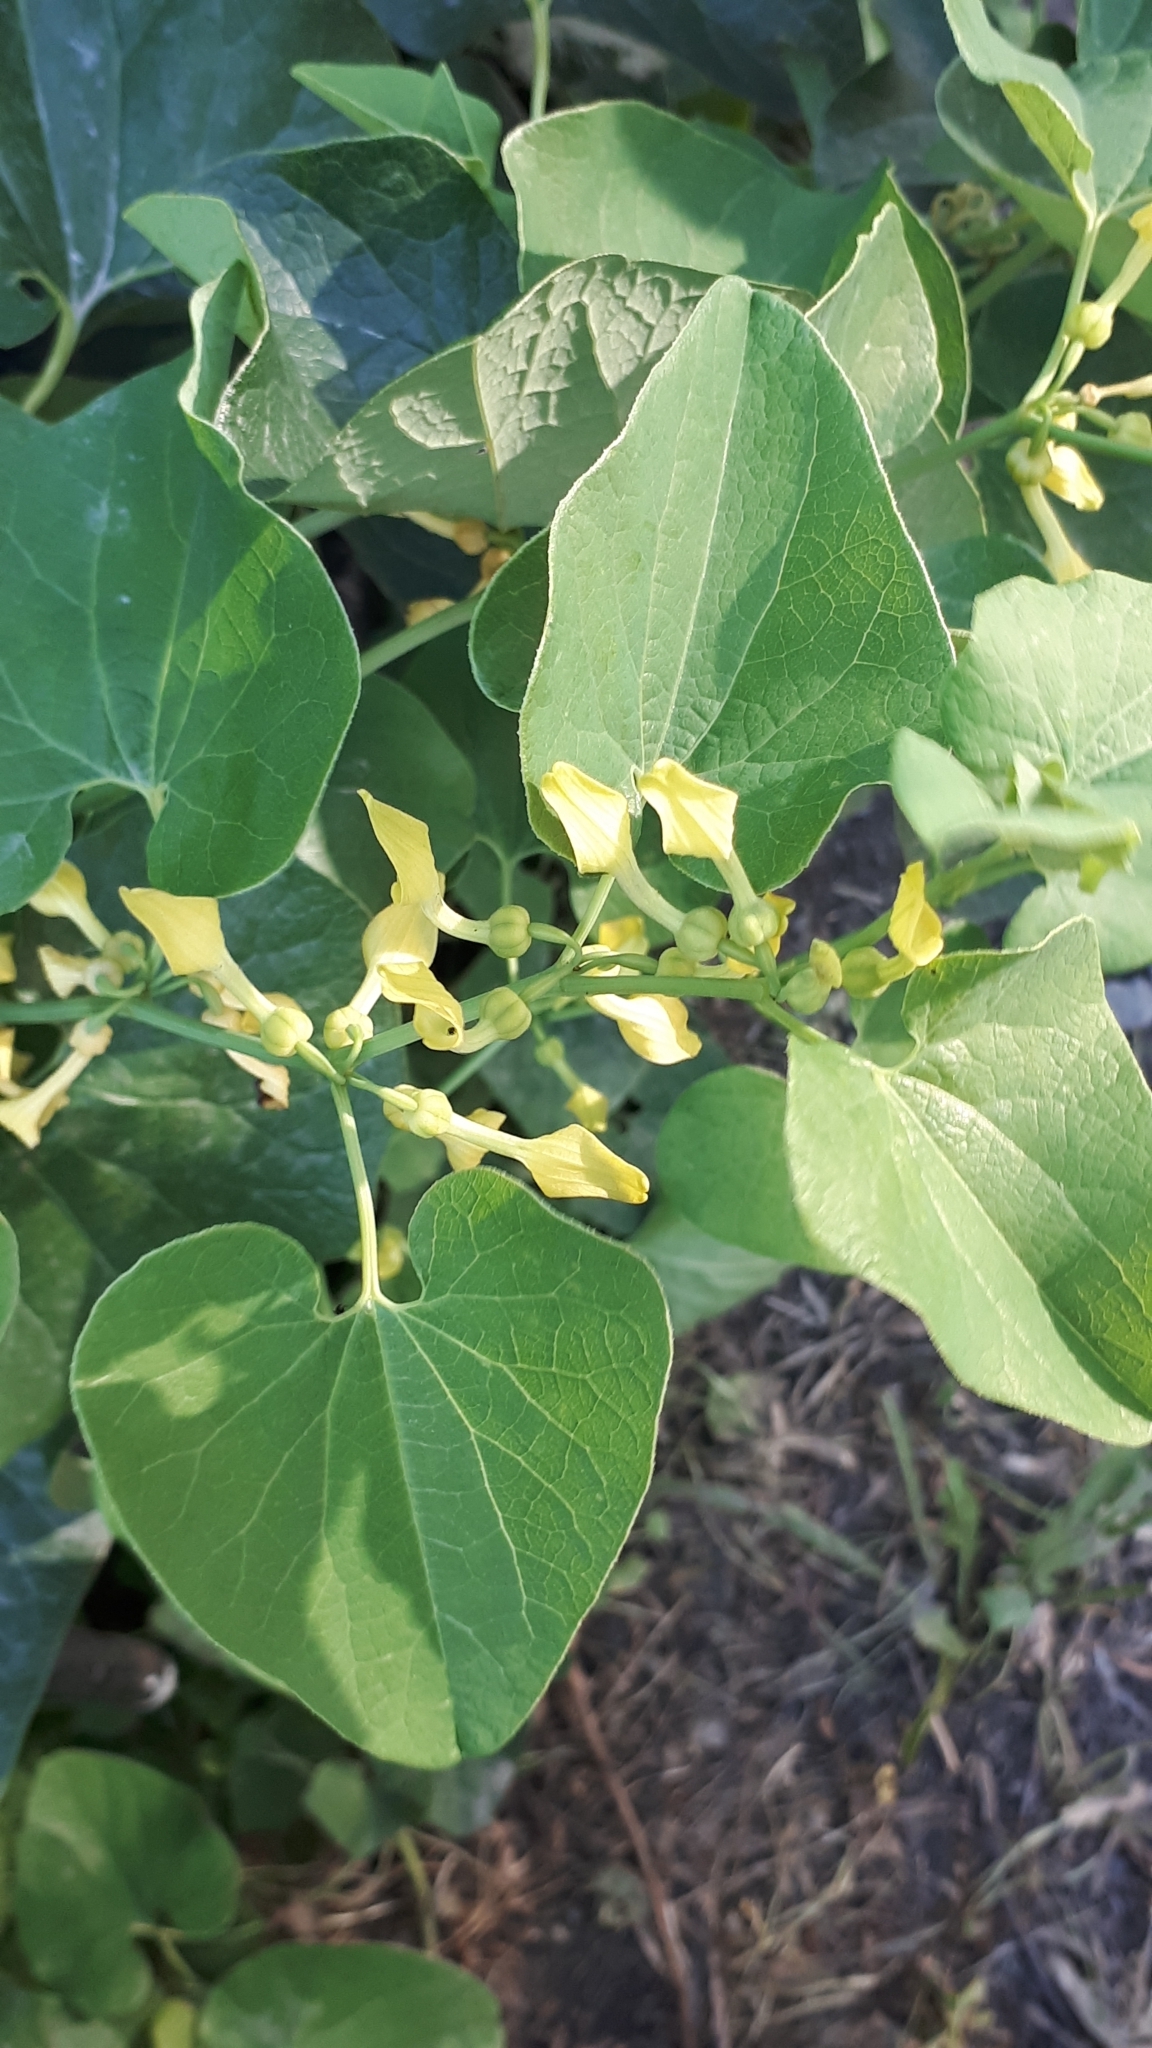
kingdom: Plantae
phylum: Tracheophyta
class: Magnoliopsida
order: Piperales
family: Aristolochiaceae
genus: Aristolochia
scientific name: Aristolochia clematitis
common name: Birthwort
